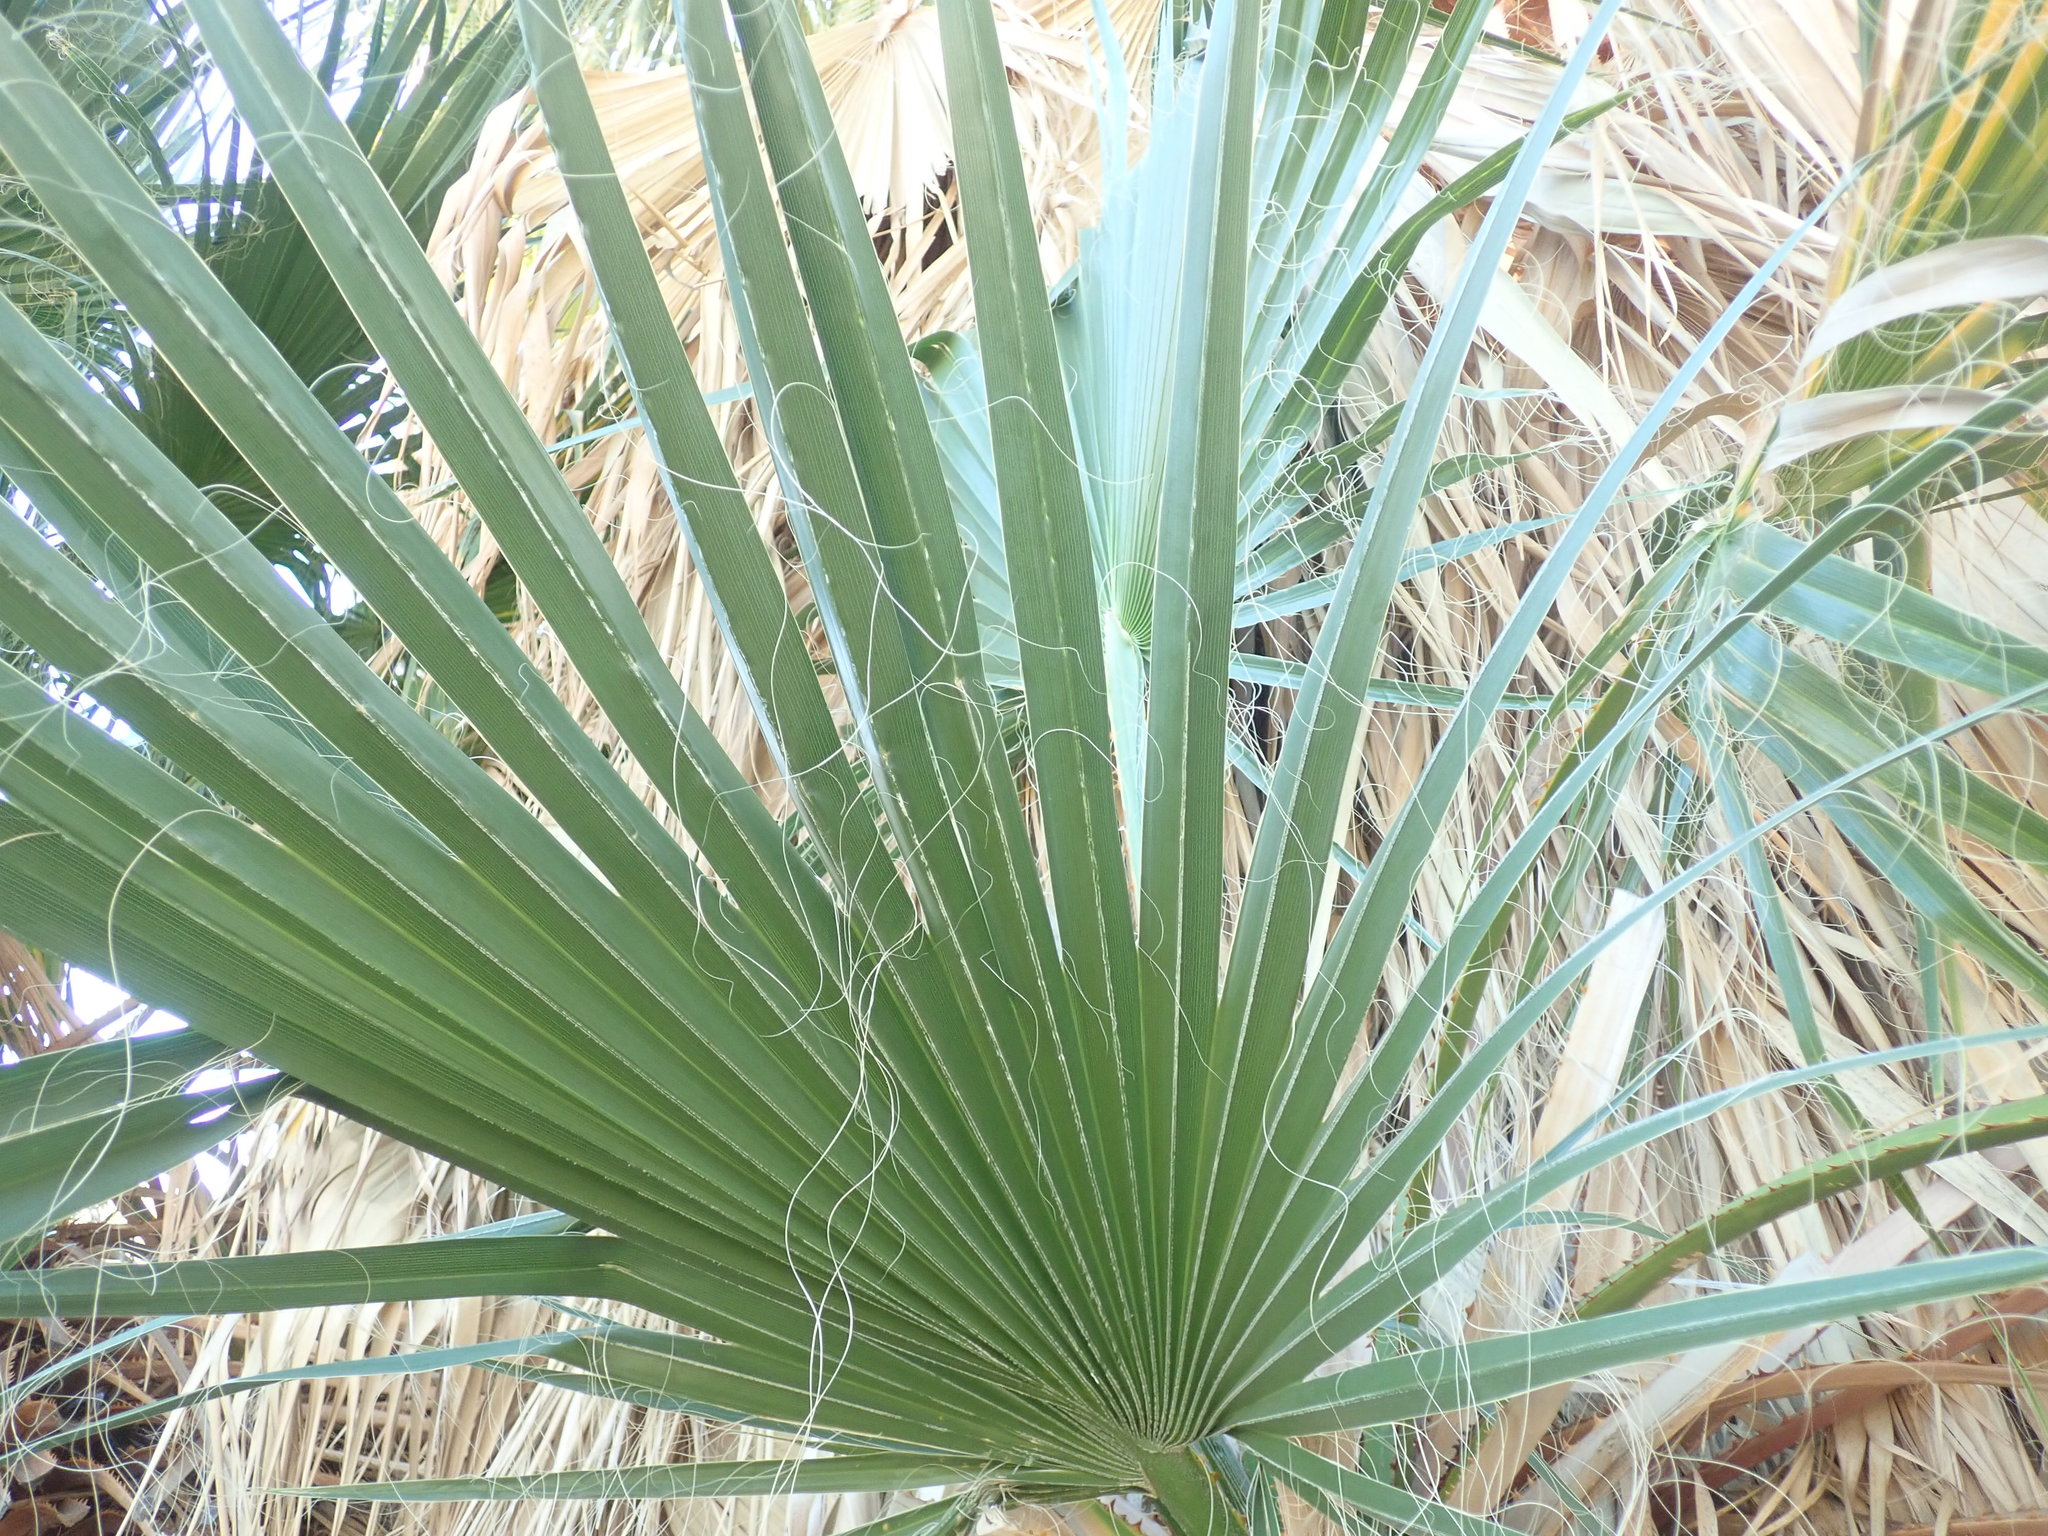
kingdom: Plantae
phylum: Tracheophyta
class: Liliopsida
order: Arecales
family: Arecaceae
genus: Washingtonia
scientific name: Washingtonia filifera
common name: California fan palm
